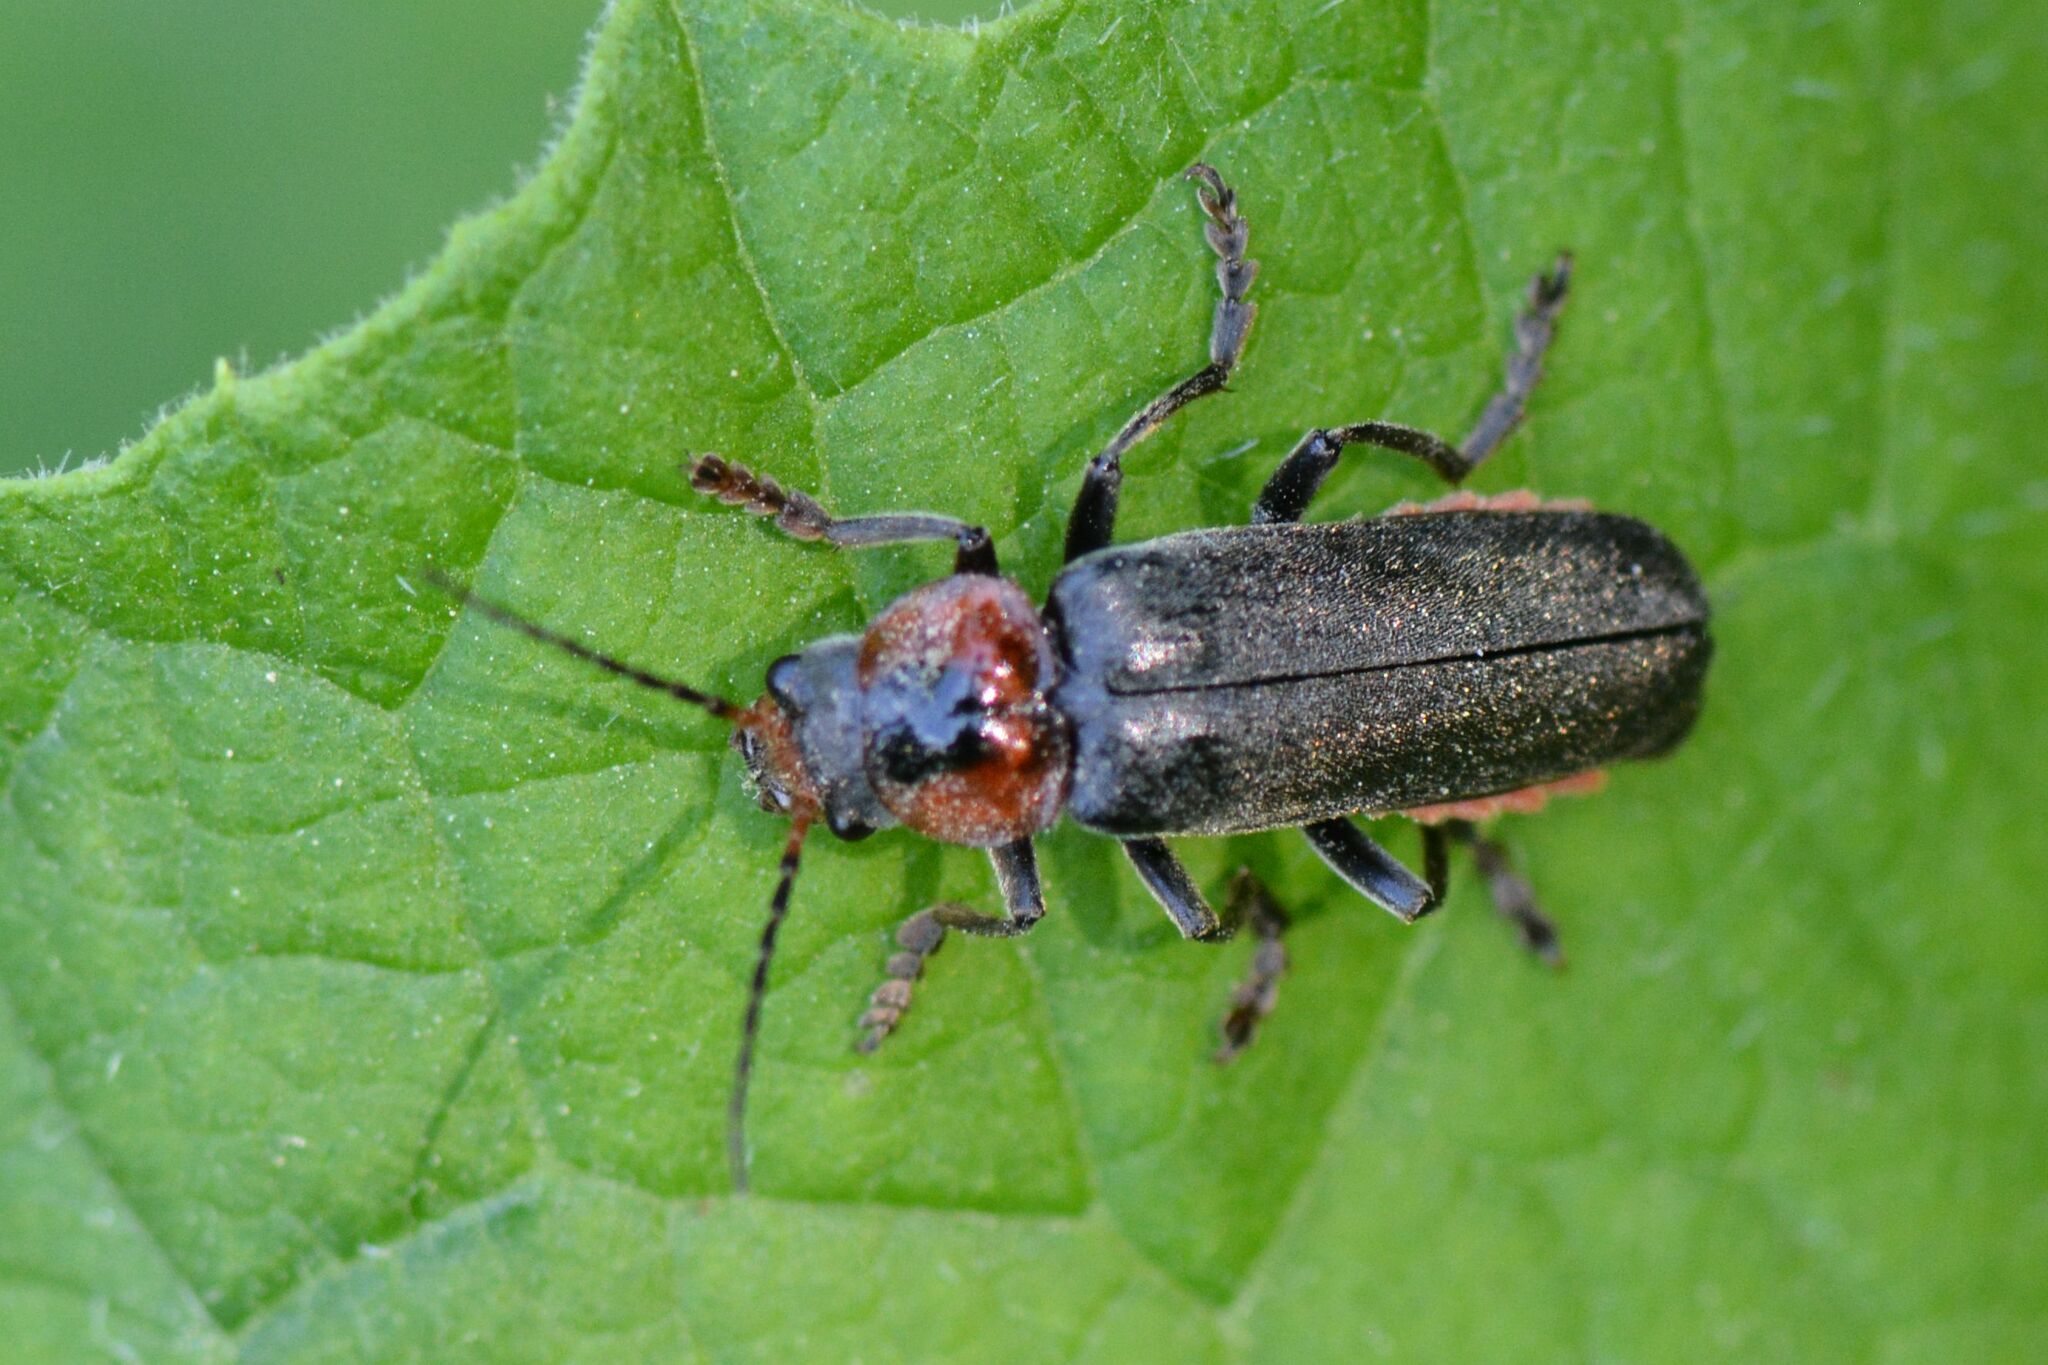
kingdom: Animalia
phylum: Arthropoda
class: Insecta
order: Coleoptera
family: Cantharidae
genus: Cantharis
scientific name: Cantharis fusca
